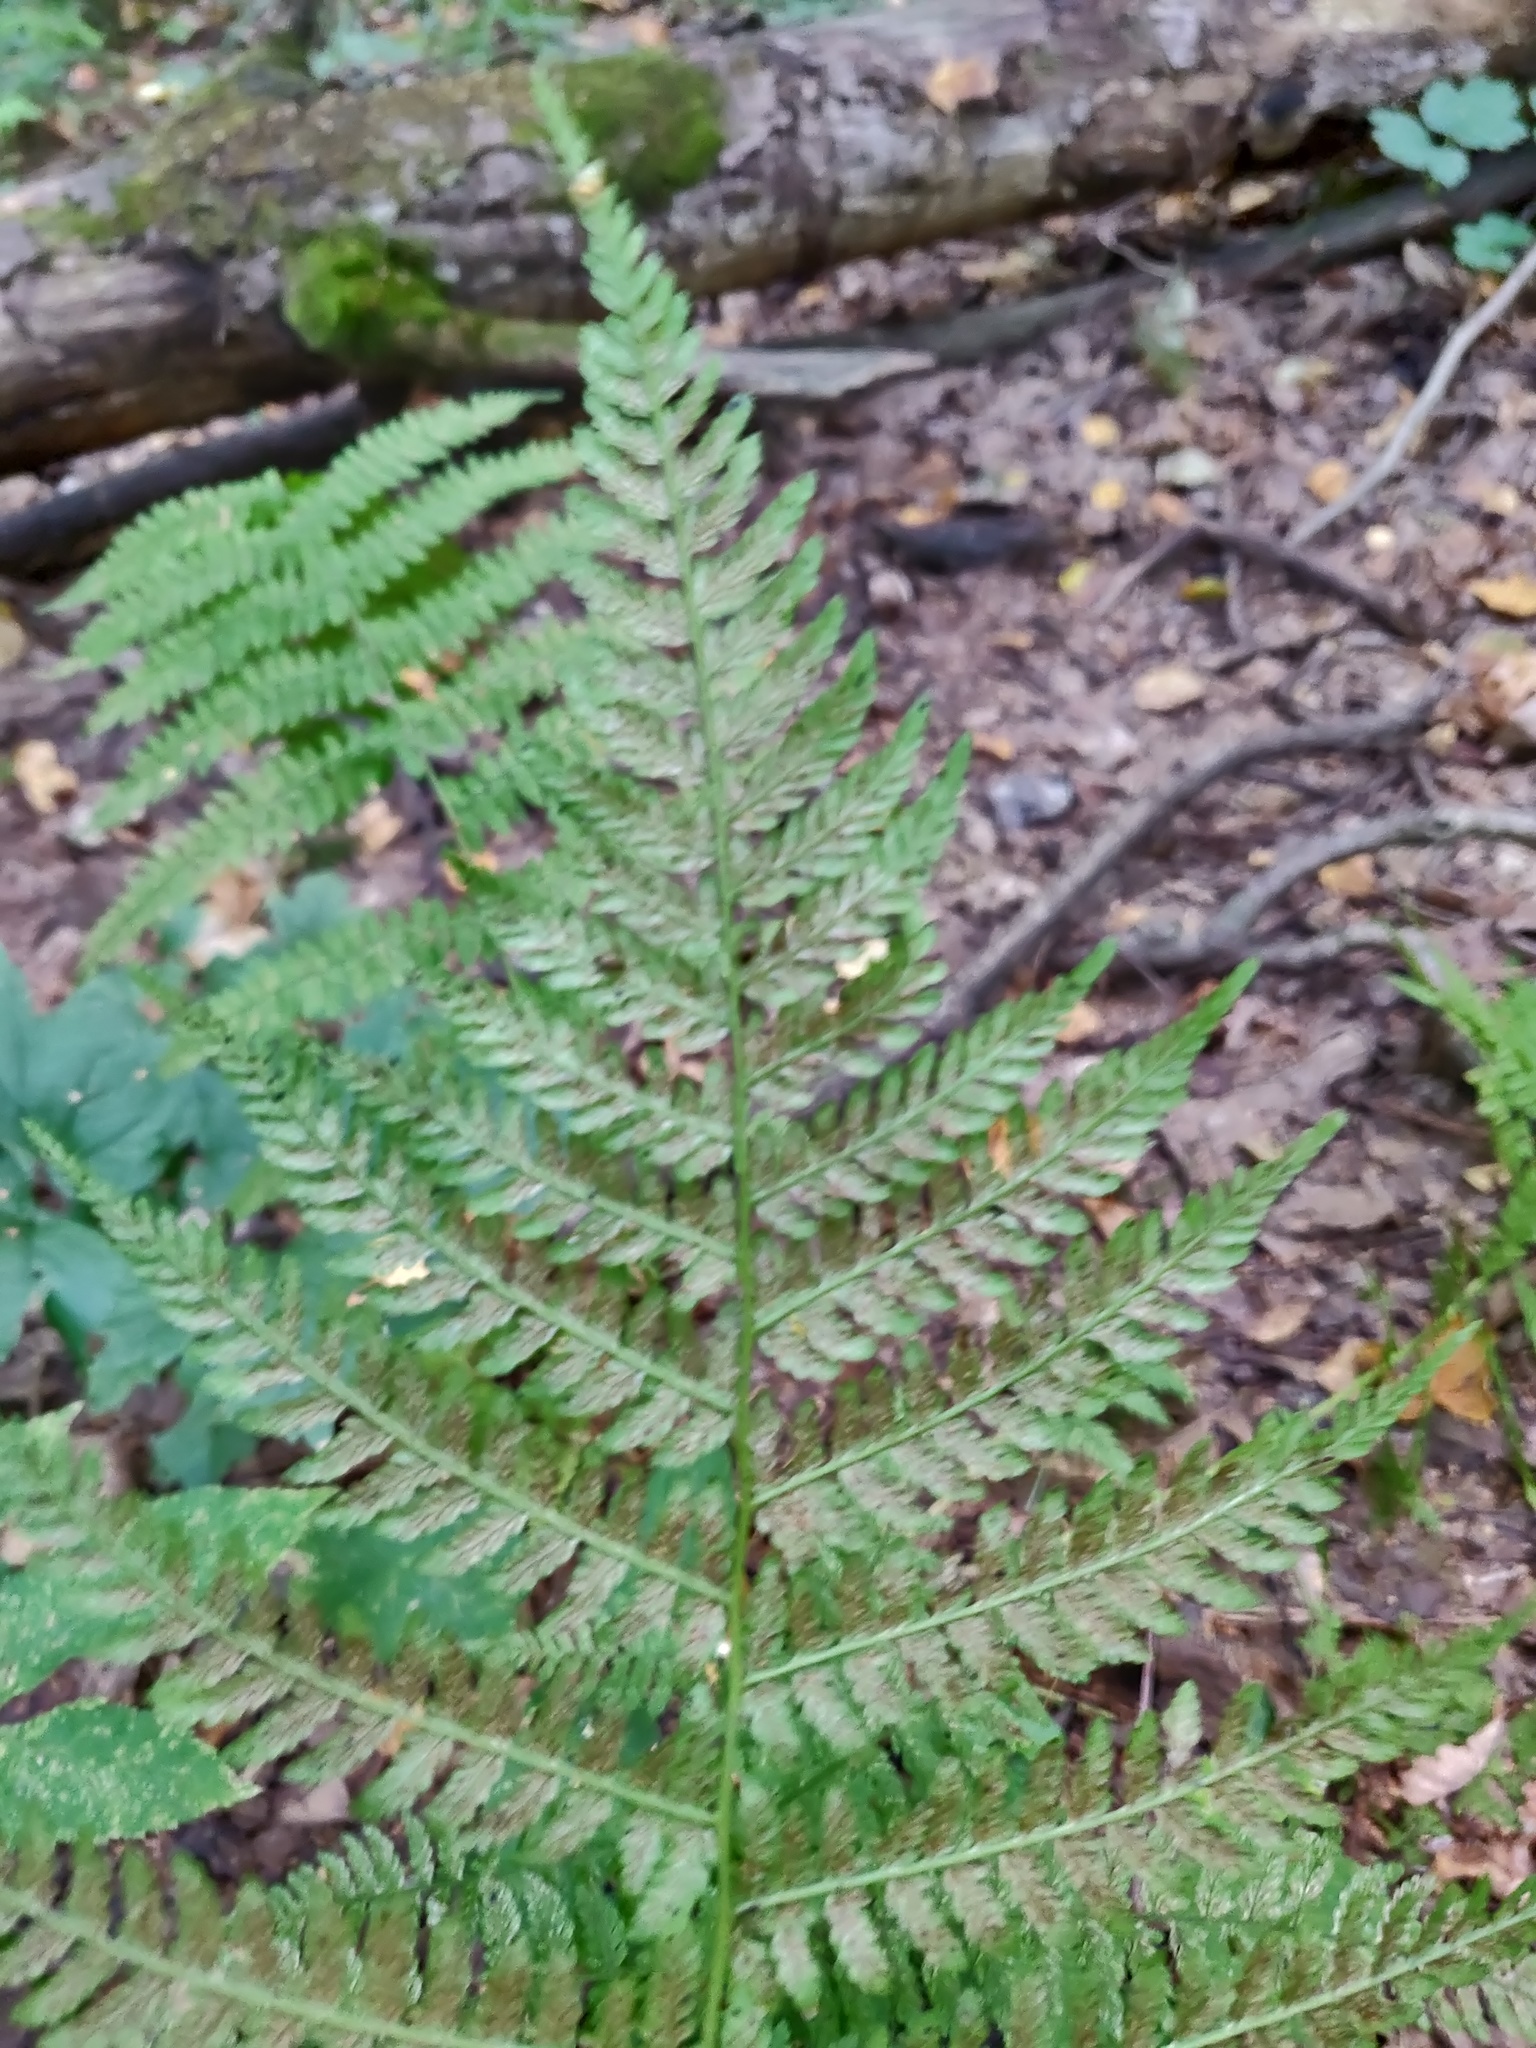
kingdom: Plantae
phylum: Tracheophyta
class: Polypodiopsida
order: Polypodiales
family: Athyriaceae
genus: Athyrium
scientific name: Athyrium filix-femina
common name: Lady fern
